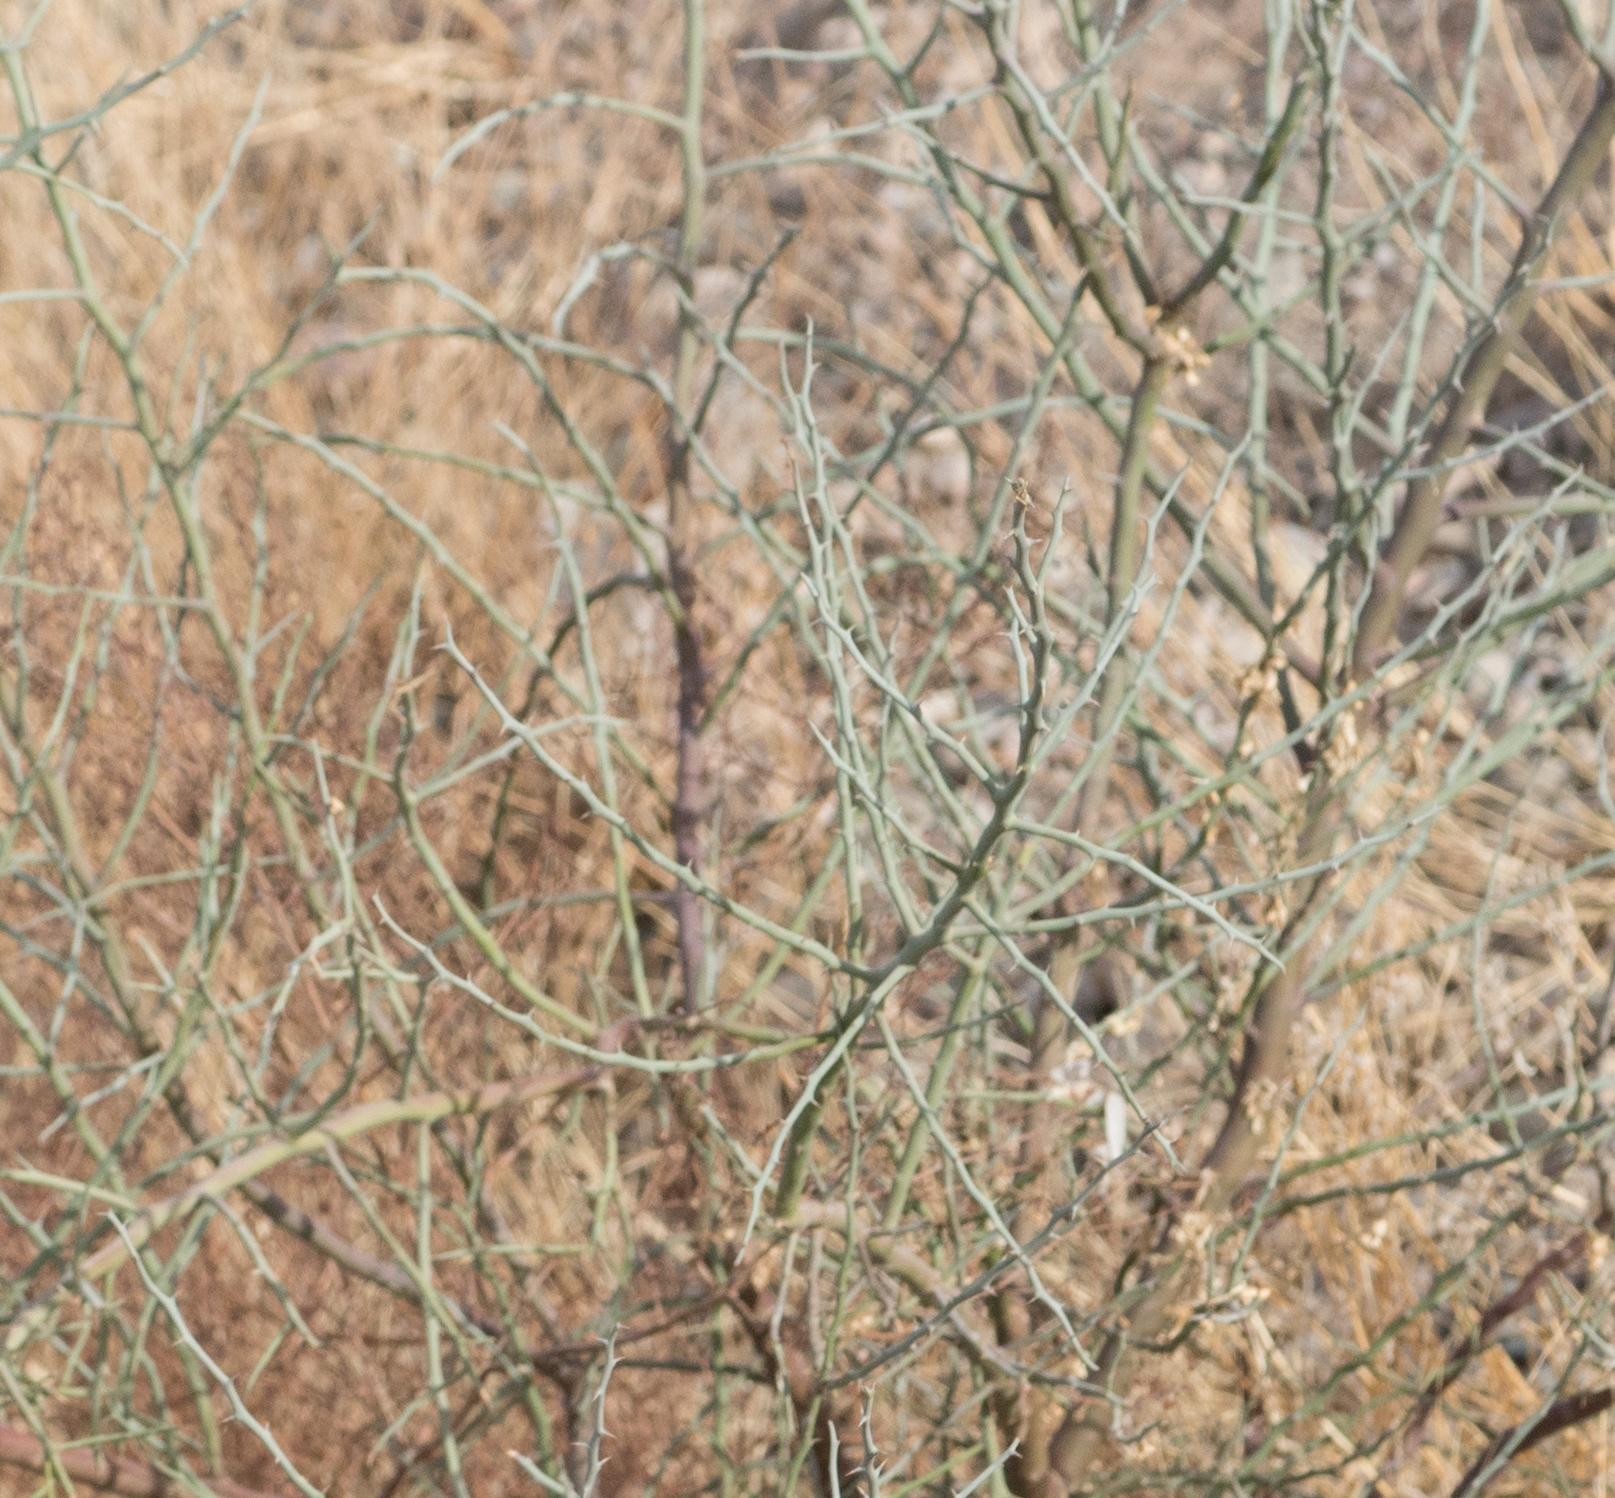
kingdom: Plantae
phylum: Tracheophyta
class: Magnoliopsida
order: Fabales
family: Fabaceae
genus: Parkinsonia
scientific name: Parkinsonia florida
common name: Blue paloverde
